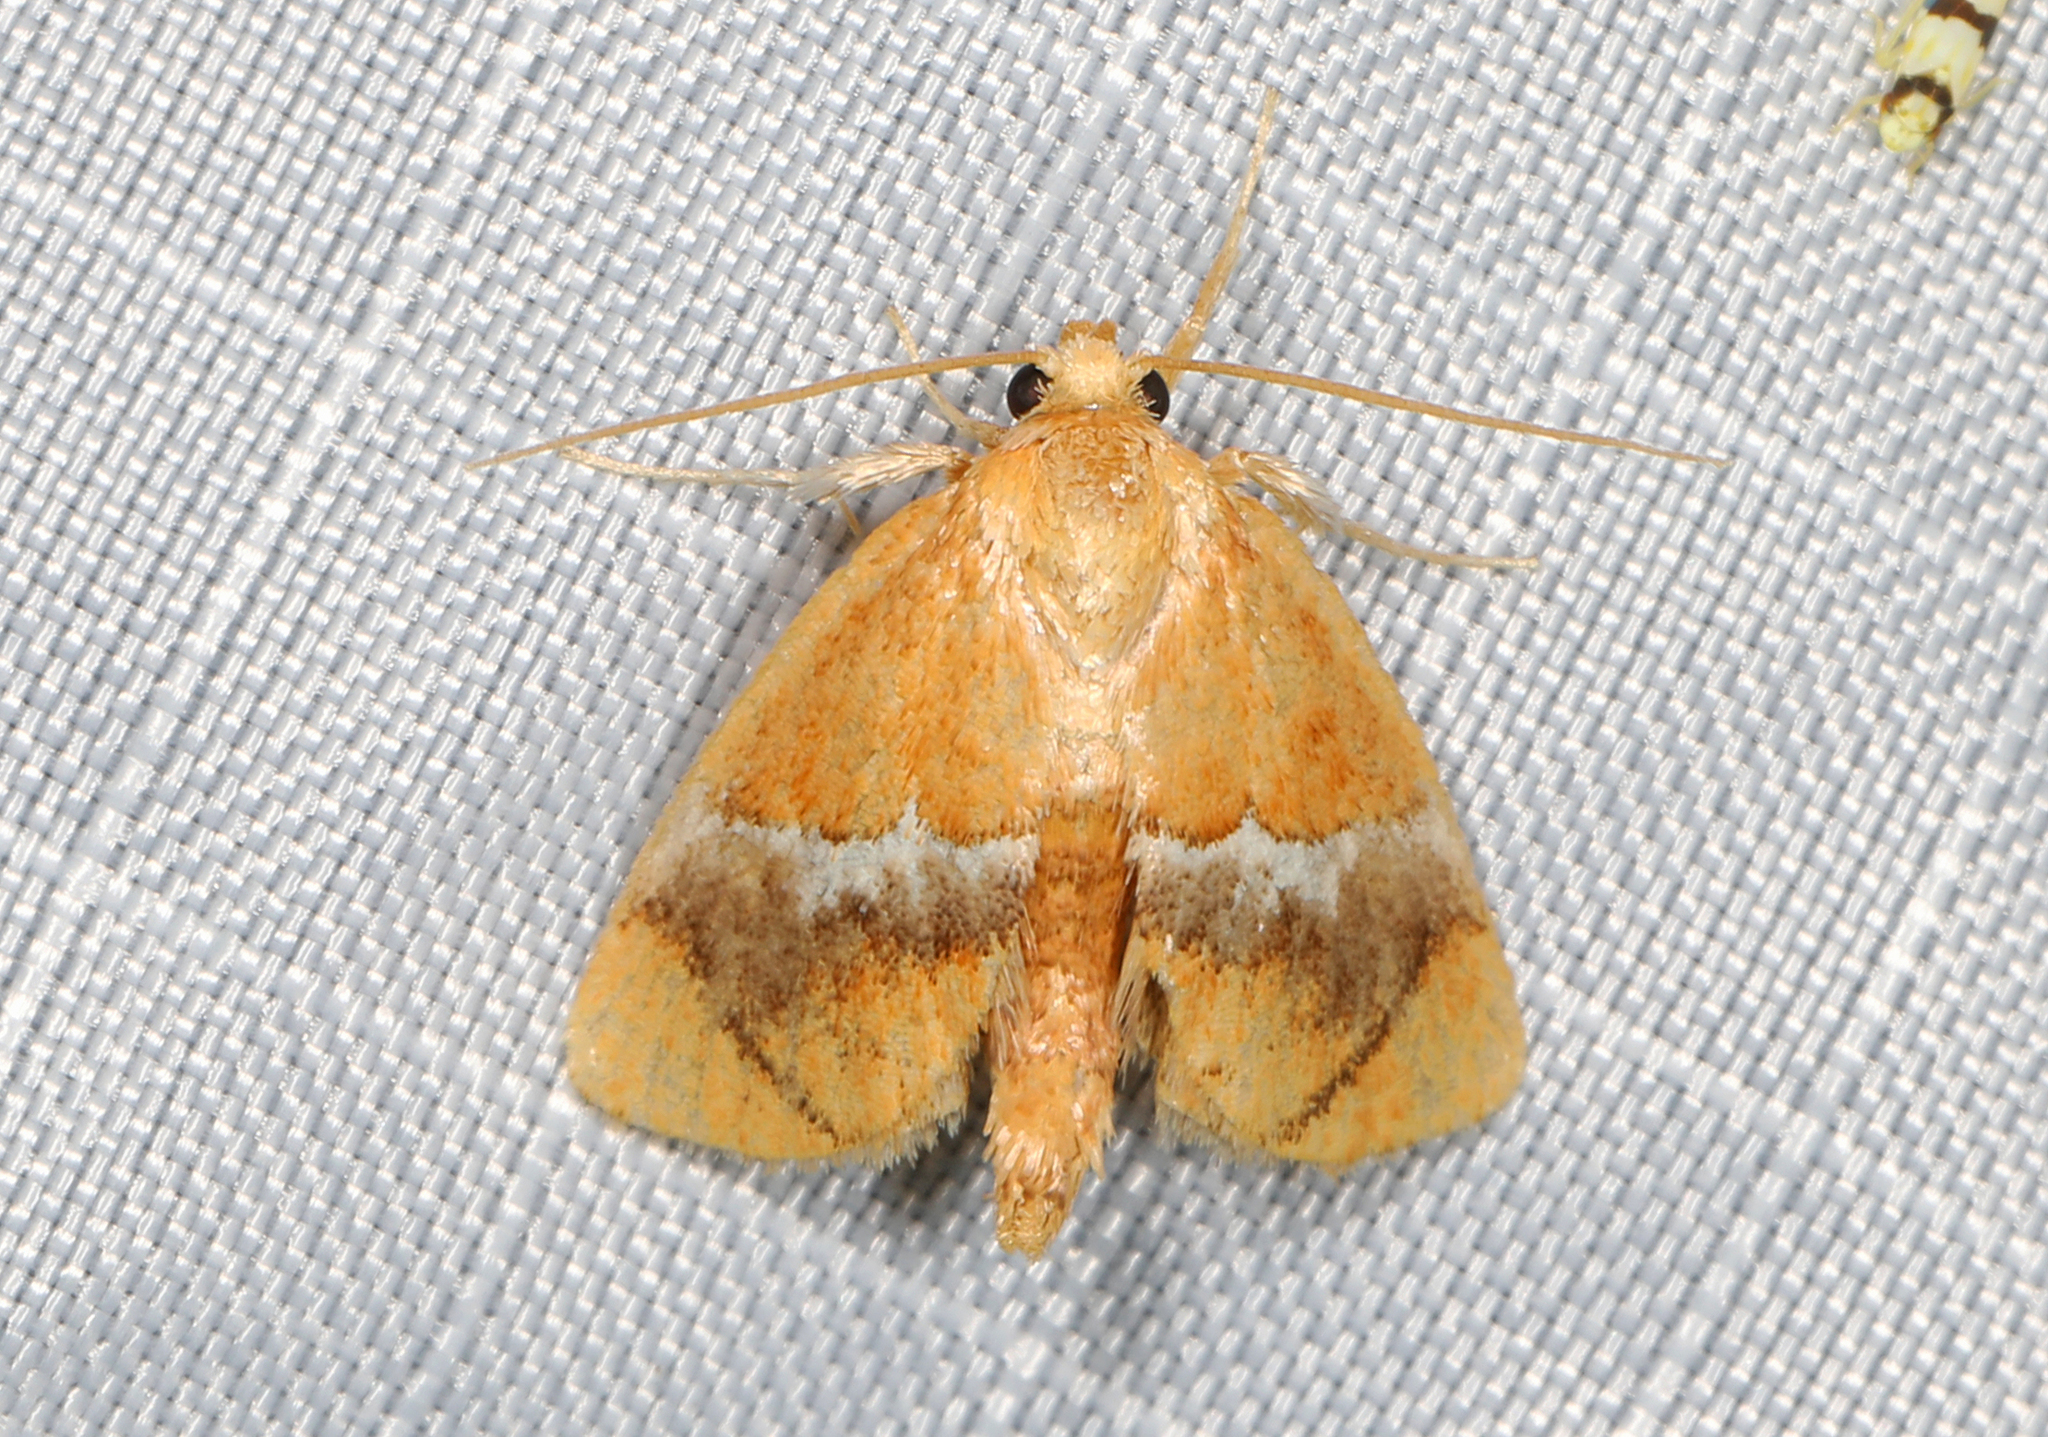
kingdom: Animalia
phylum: Arthropoda
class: Insecta
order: Lepidoptera
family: Limacodidae
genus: Lithacodes
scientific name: Lithacodes fasciola
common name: Yellow-shouldered slug moth
